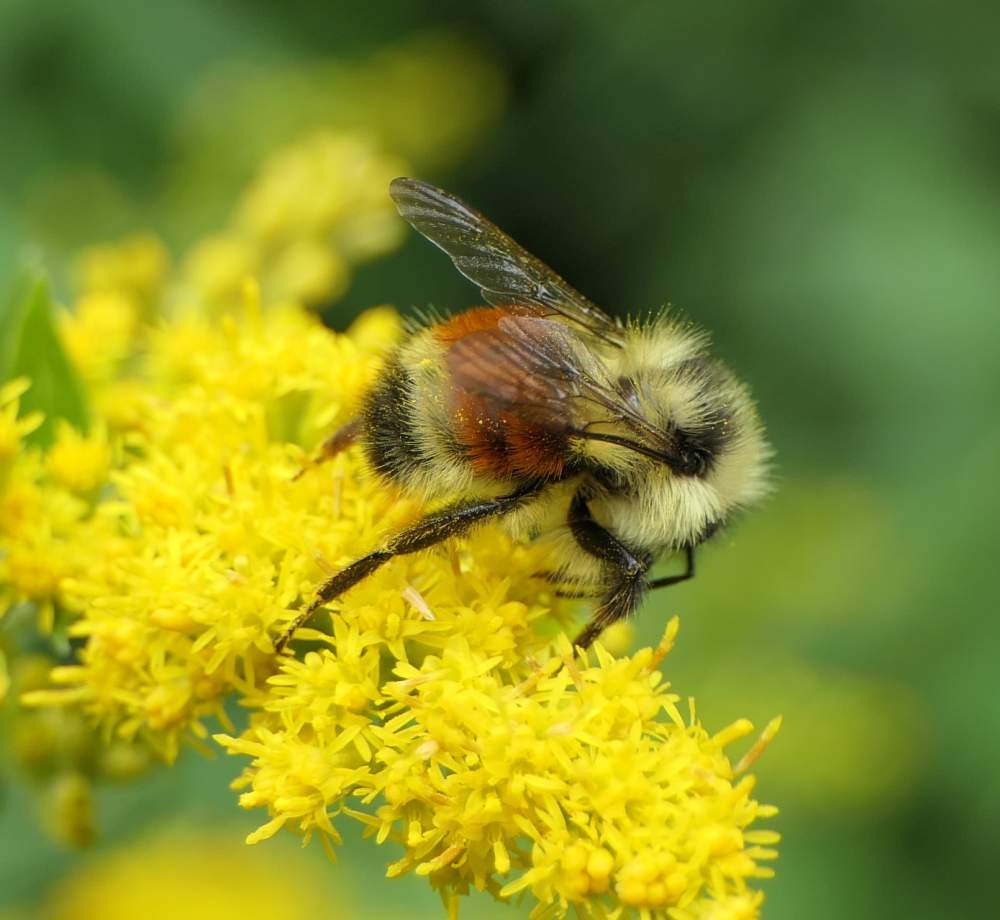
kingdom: Animalia
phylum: Arthropoda
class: Insecta
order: Hymenoptera
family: Apidae
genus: Bombus
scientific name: Bombus ternarius
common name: Tri-colored bumble bee
